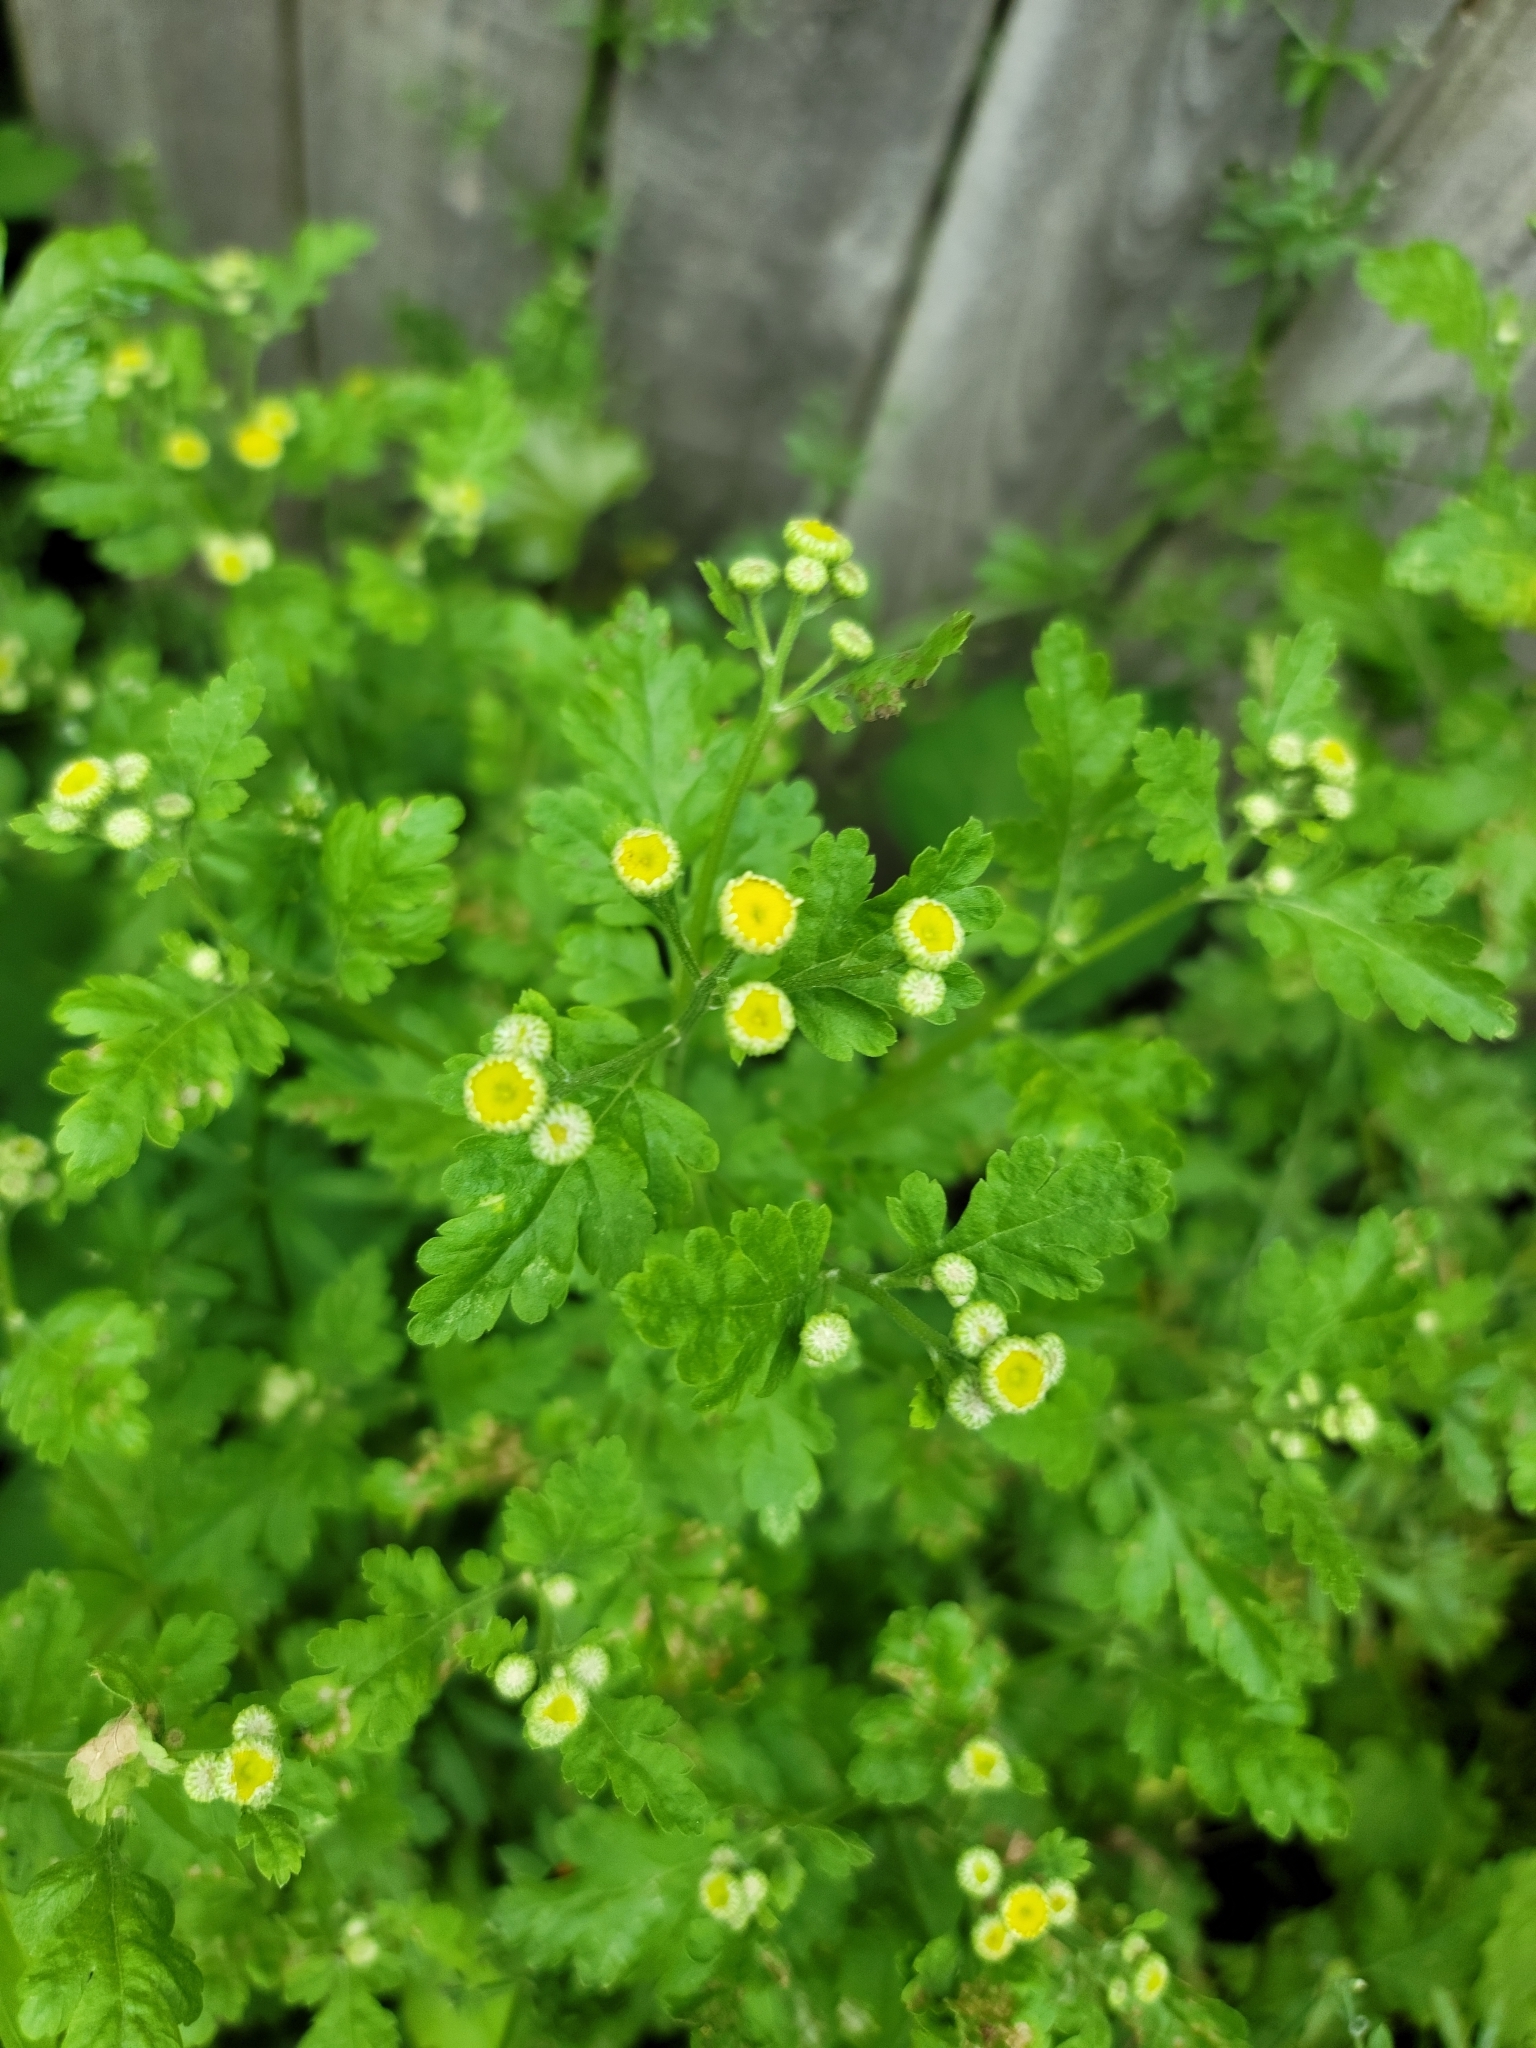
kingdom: Plantae
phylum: Tracheophyta
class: Magnoliopsida
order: Asterales
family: Asteraceae
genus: Tanacetum
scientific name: Tanacetum parthenium
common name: Feverfew
